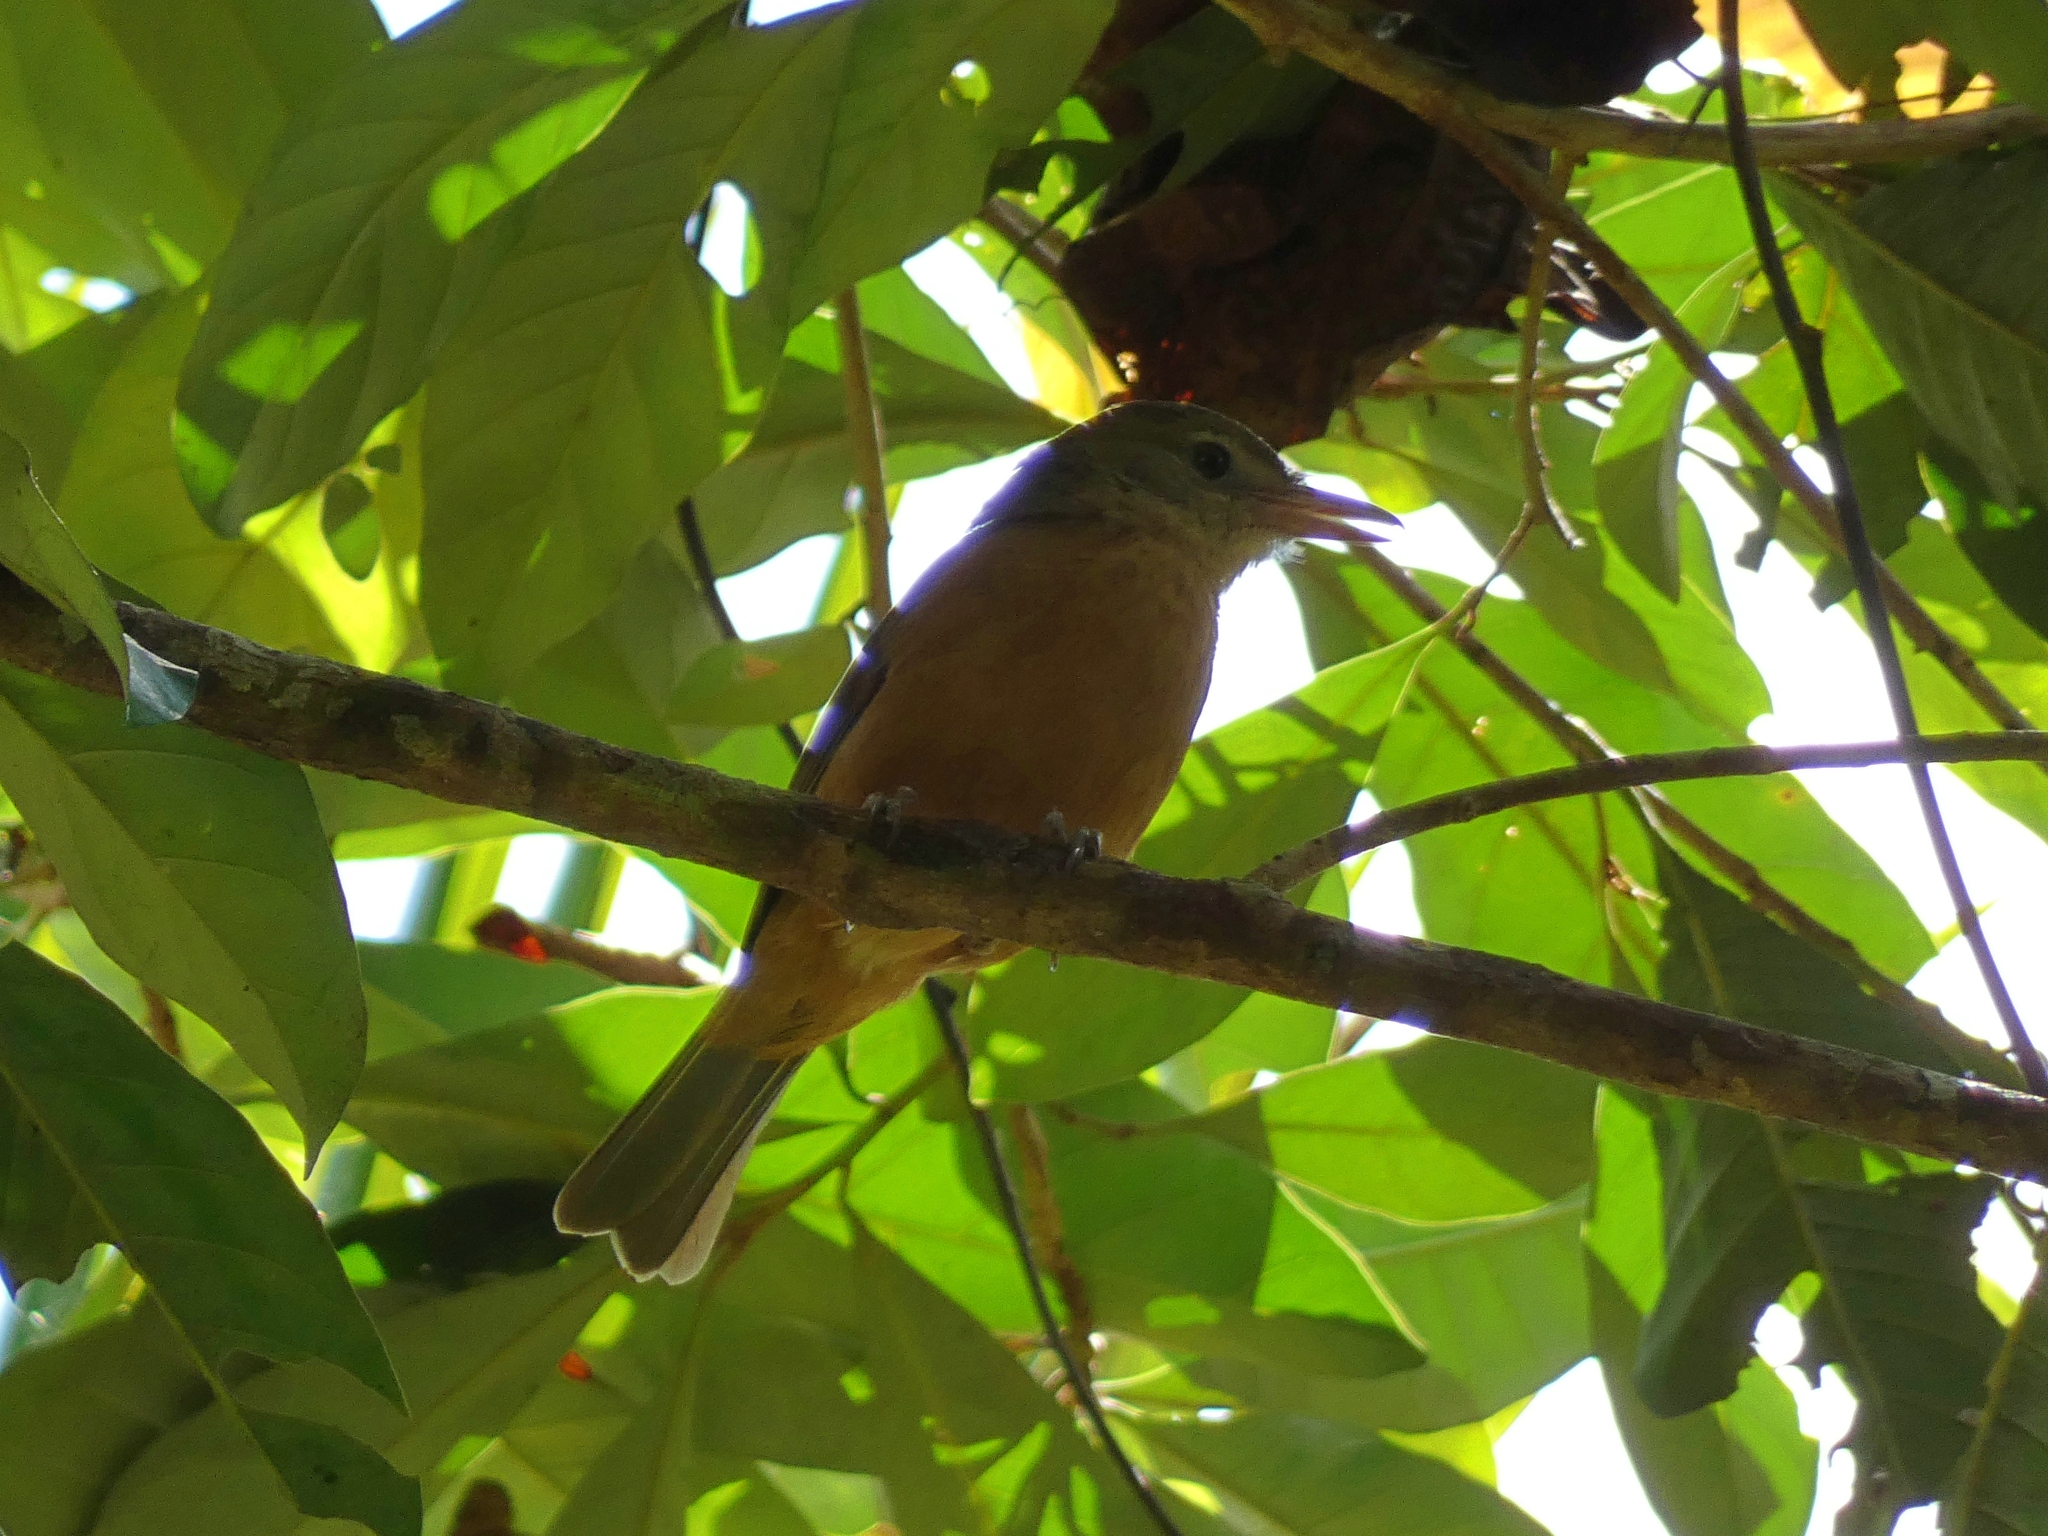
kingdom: Animalia
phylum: Chordata
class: Aves
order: Passeriformes
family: Pachycephalidae
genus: Colluricincla
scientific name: Colluricincla rufogaster
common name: Rufous shrikethrush
